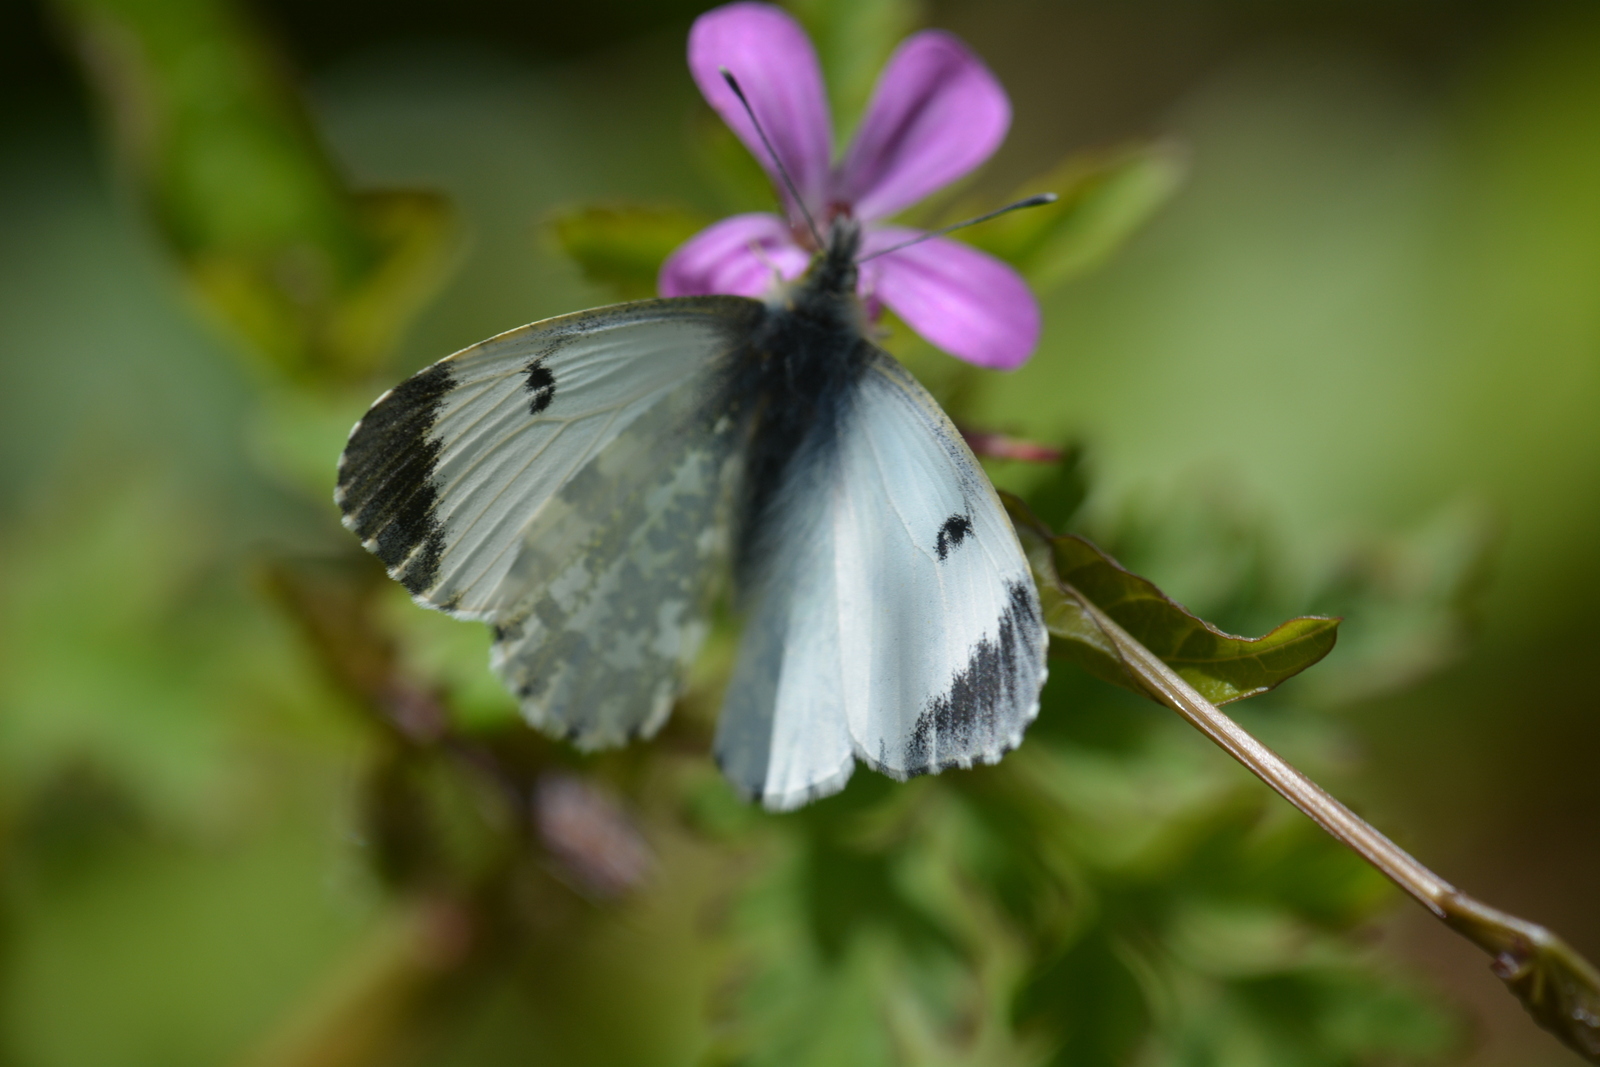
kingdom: Animalia
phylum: Arthropoda
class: Insecta
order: Lepidoptera
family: Pieridae
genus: Anthocharis
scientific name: Anthocharis cardamines
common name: Orange-tip
